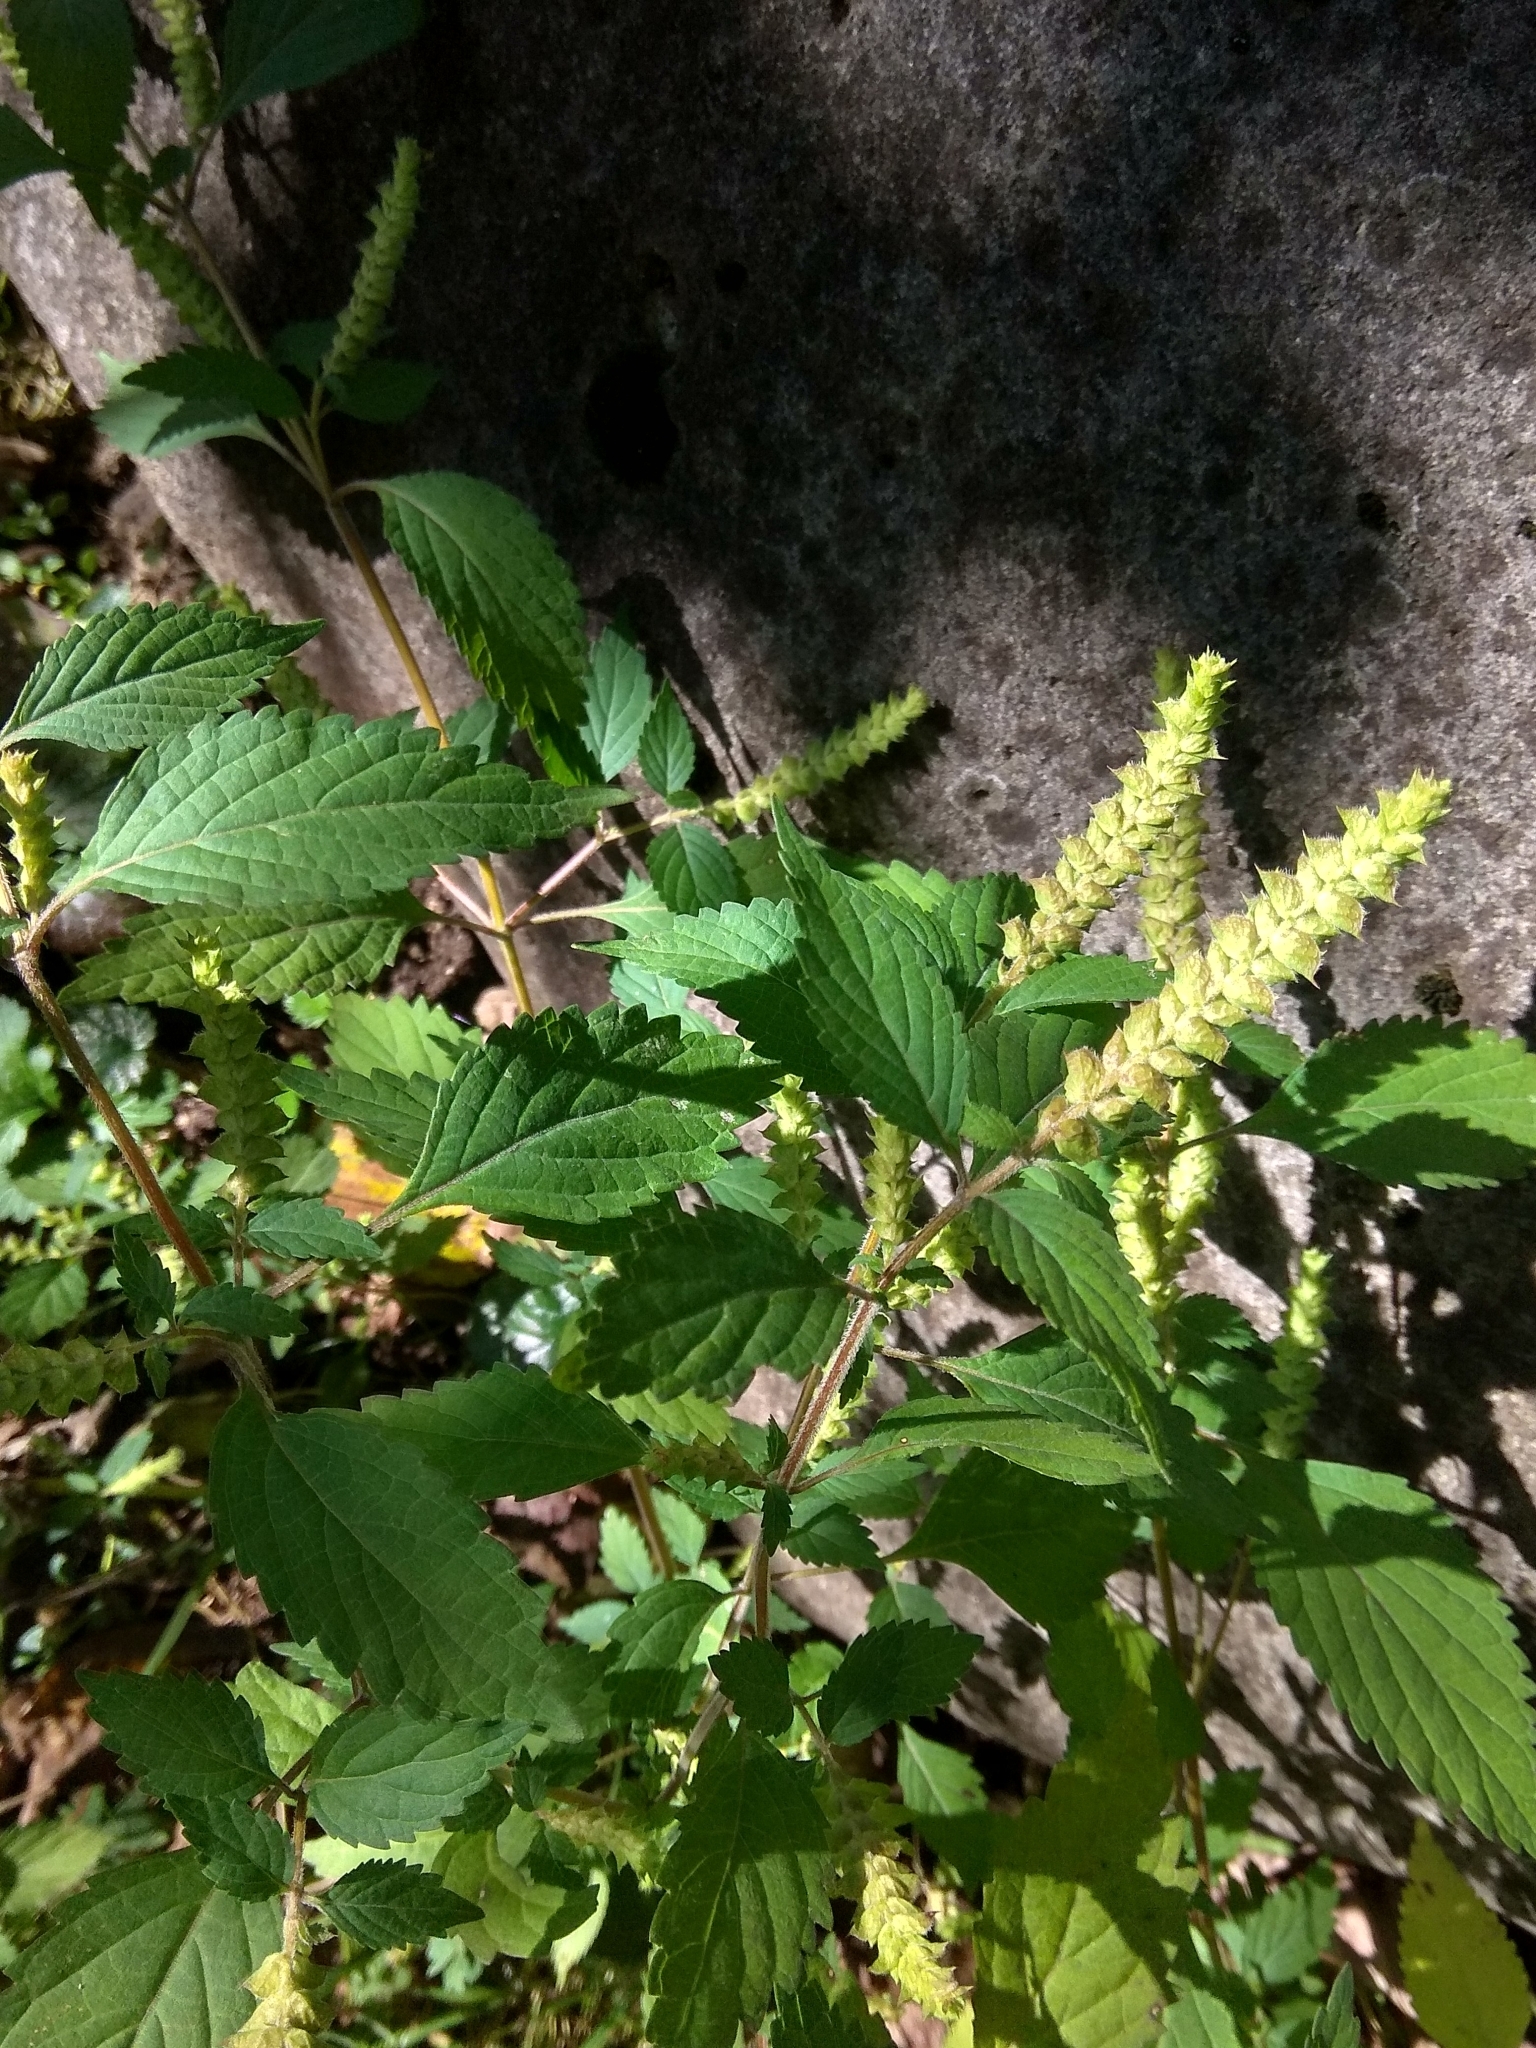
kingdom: Plantae
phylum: Tracheophyta
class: Magnoliopsida
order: Lamiales
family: Lamiaceae
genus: Elsholtzia
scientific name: Elsholtzia ciliata
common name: Ciliate elsholtzia
